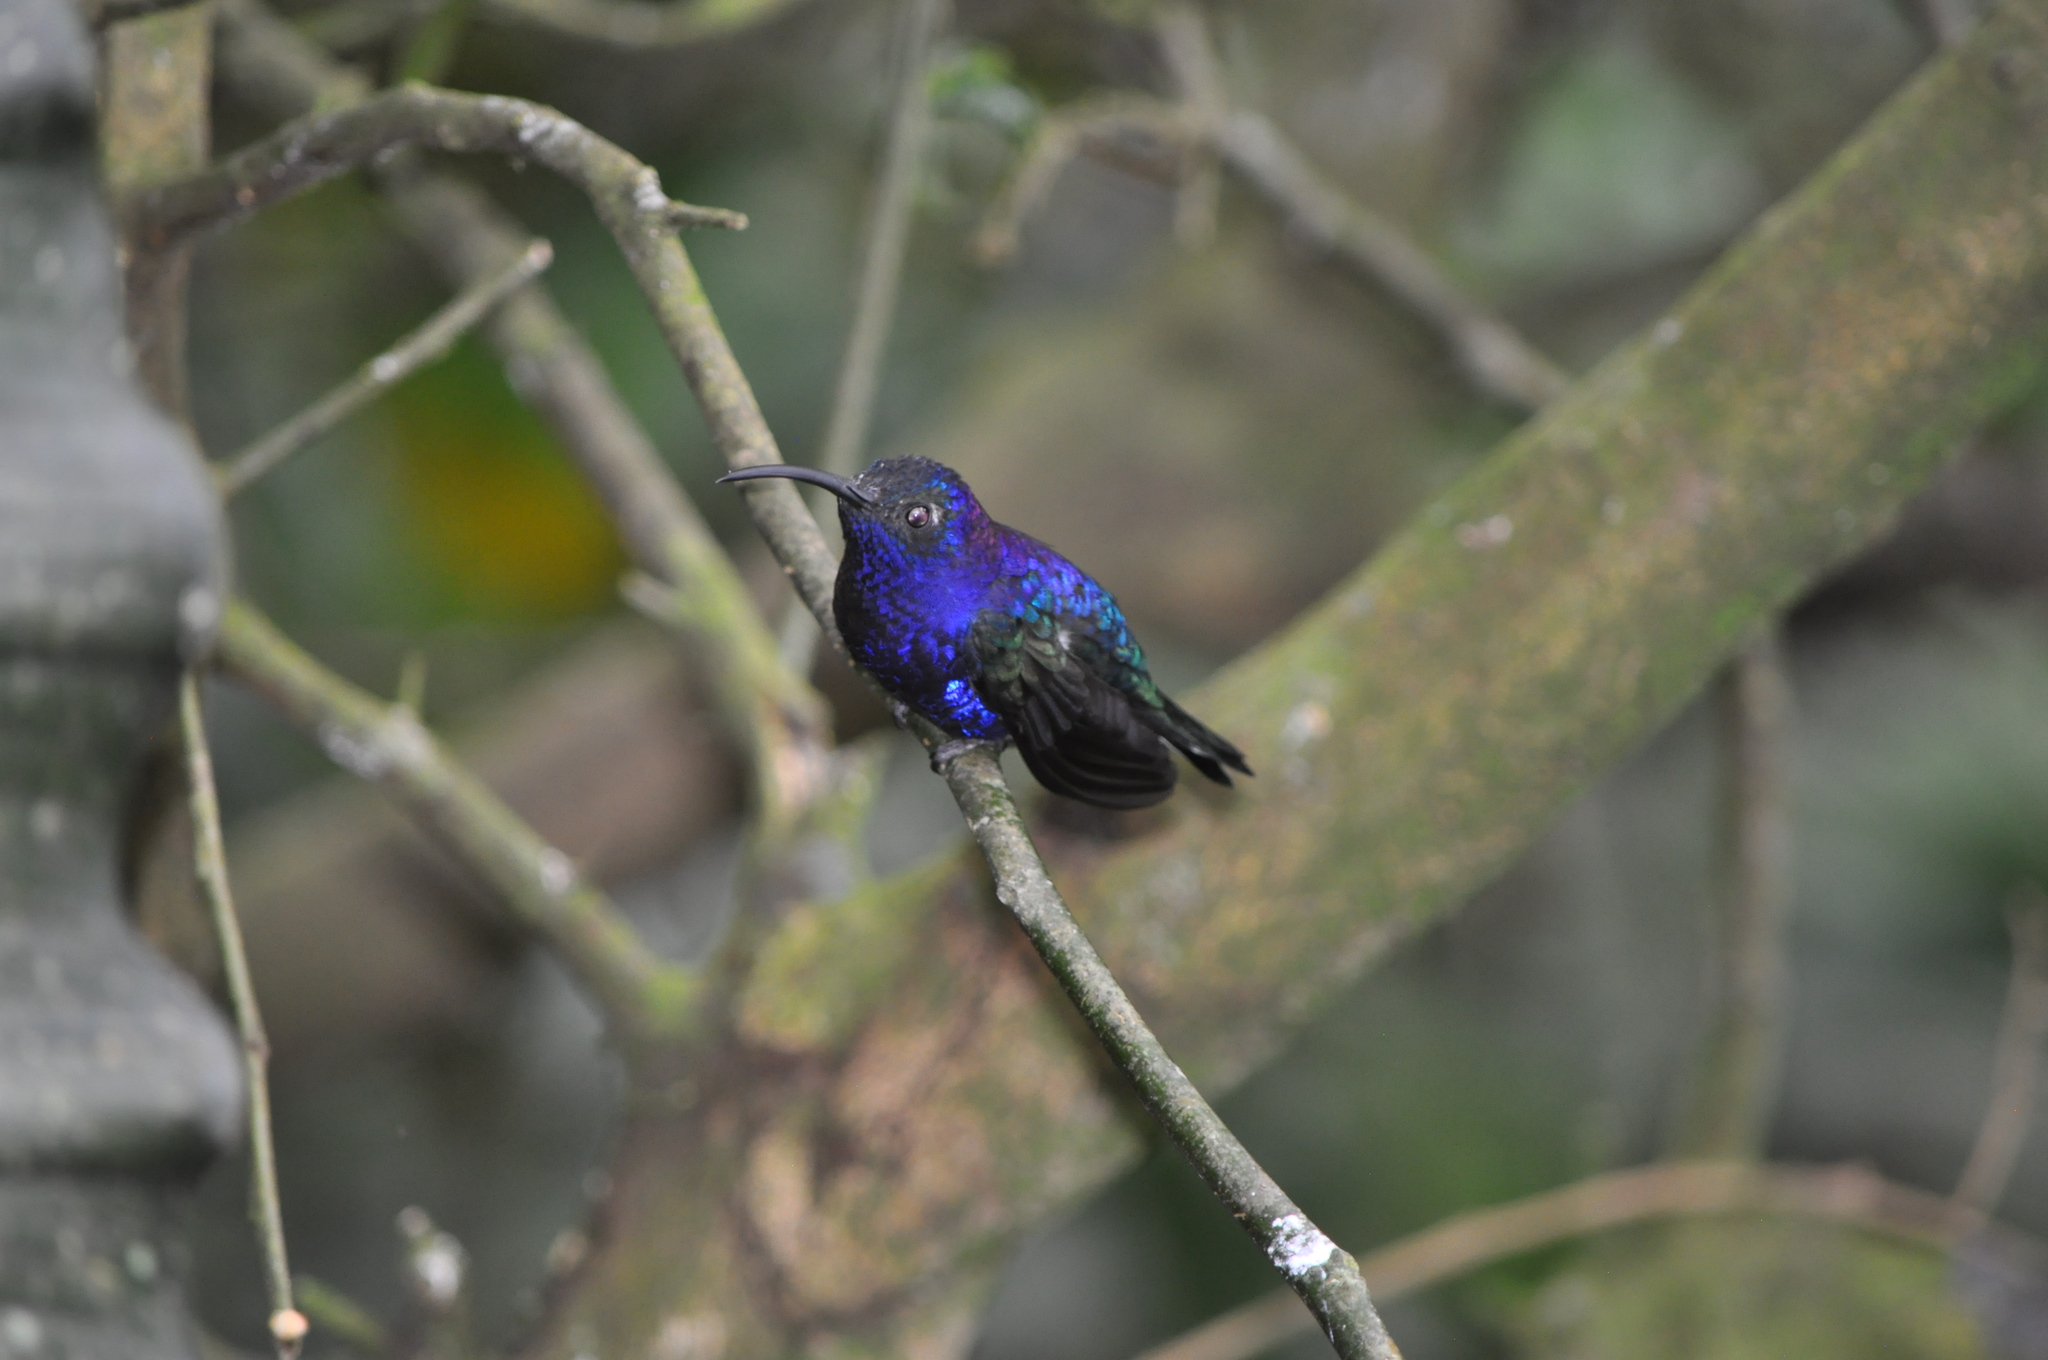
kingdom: Animalia
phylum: Chordata
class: Aves
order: Apodiformes
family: Trochilidae
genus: Campylopterus
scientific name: Campylopterus hemileucurus
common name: Violet sabrewing
